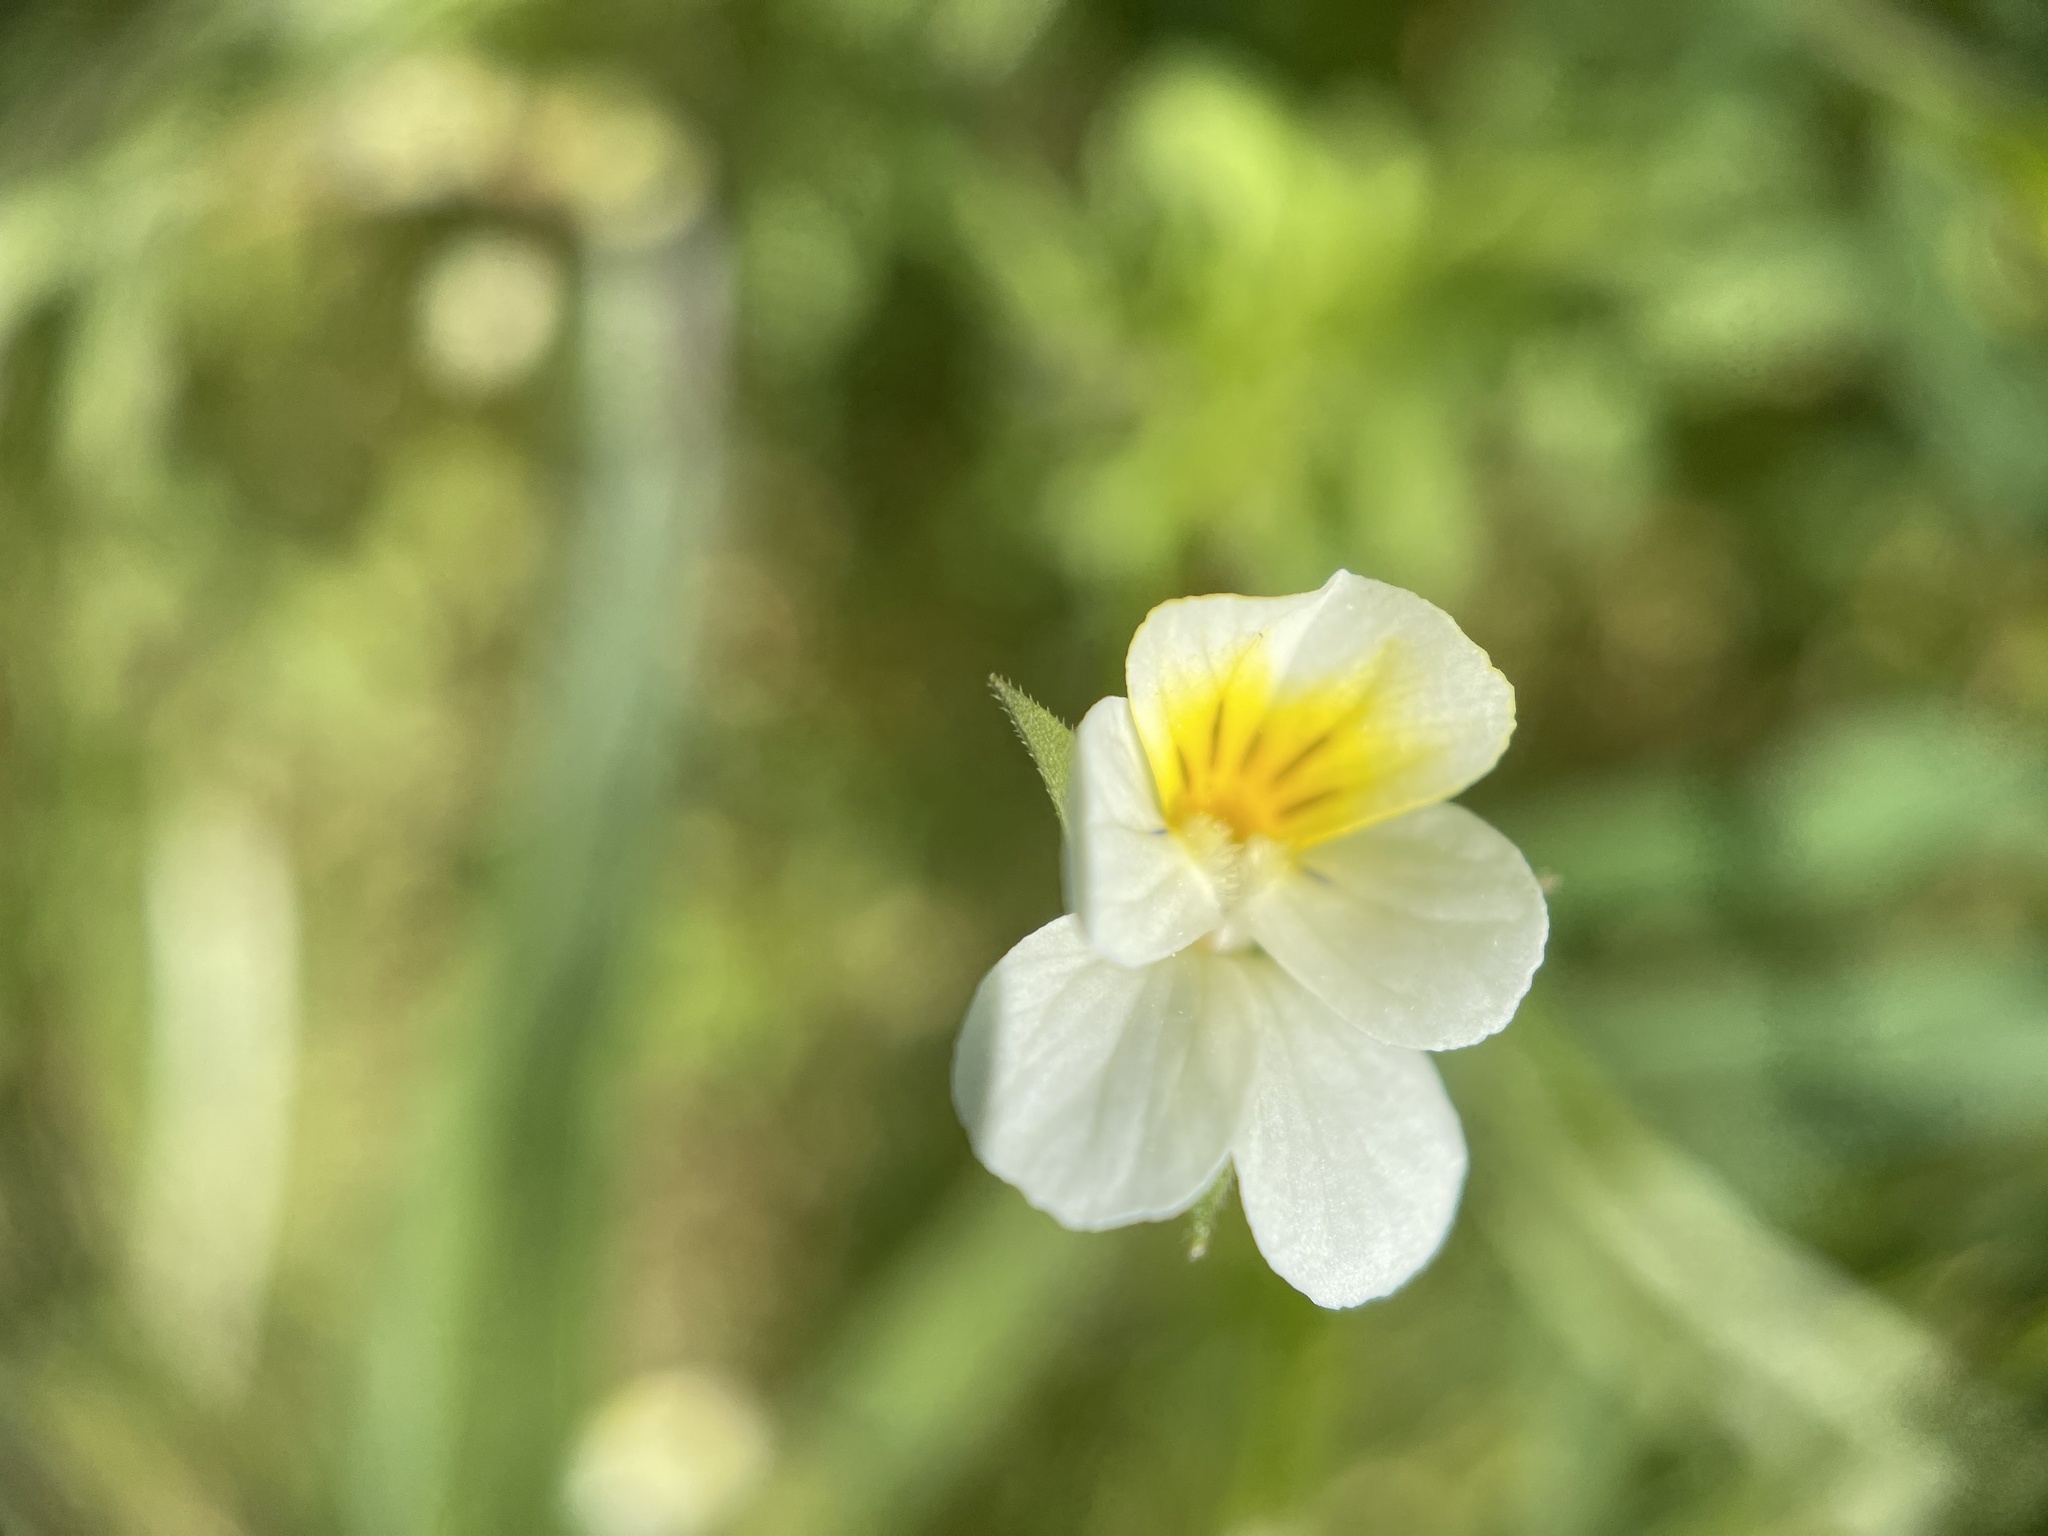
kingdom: Plantae
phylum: Tracheophyta
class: Magnoliopsida
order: Malpighiales
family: Violaceae
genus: Viola
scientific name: Viola arvensis
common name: Field pansy
